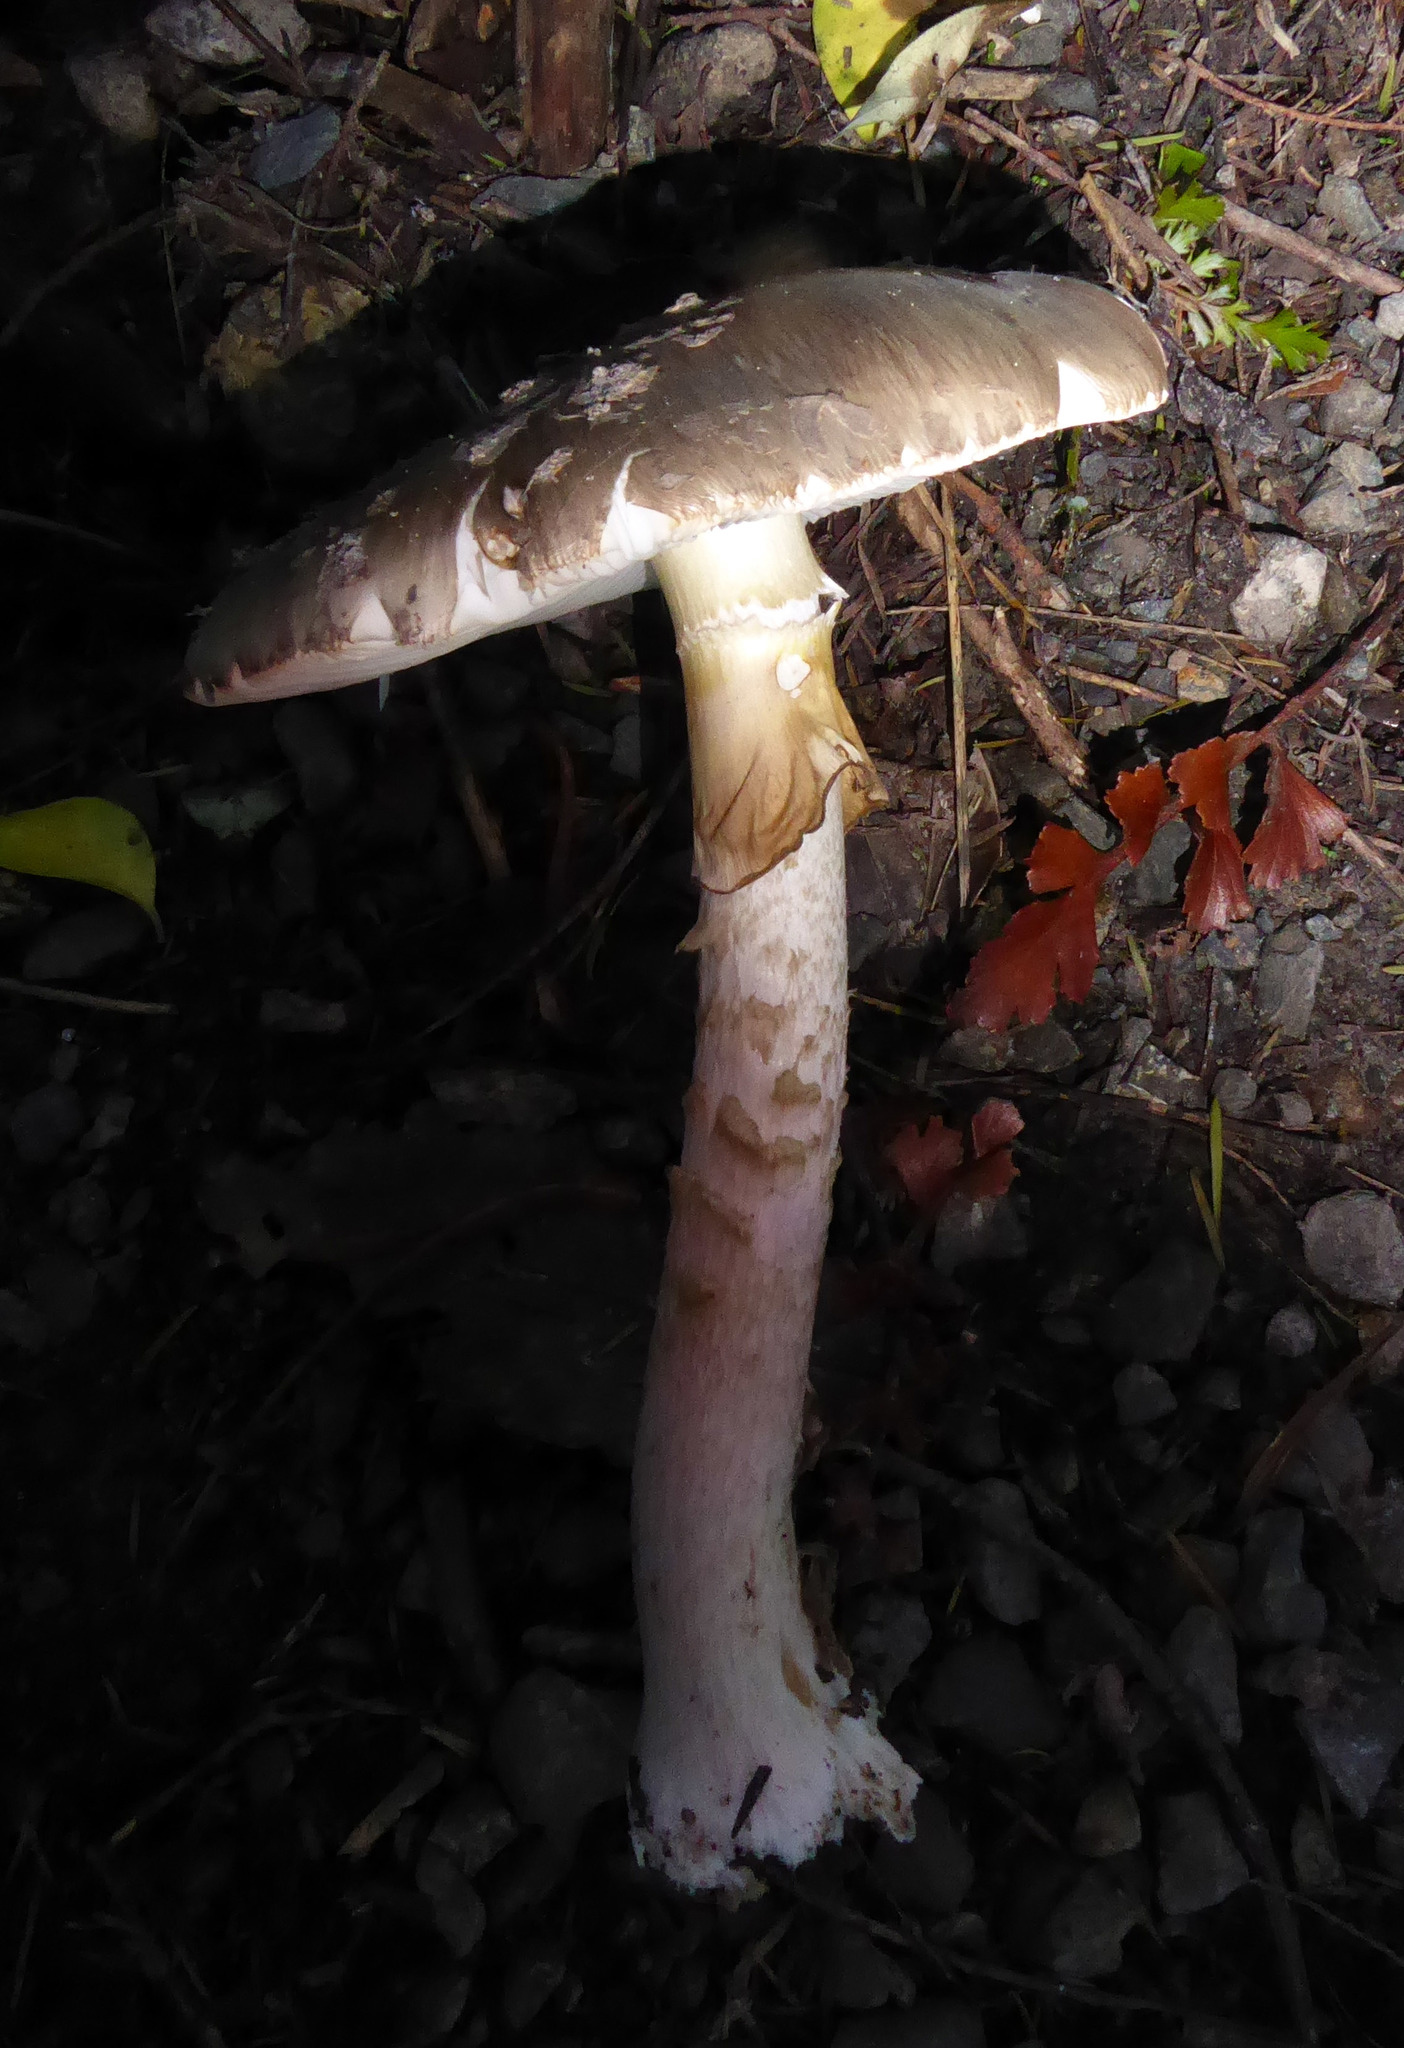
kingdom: Fungi
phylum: Basidiomycota
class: Agaricomycetes
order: Agaricales
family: Amanitaceae
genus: Amanita
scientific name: Amanita nothofagi
